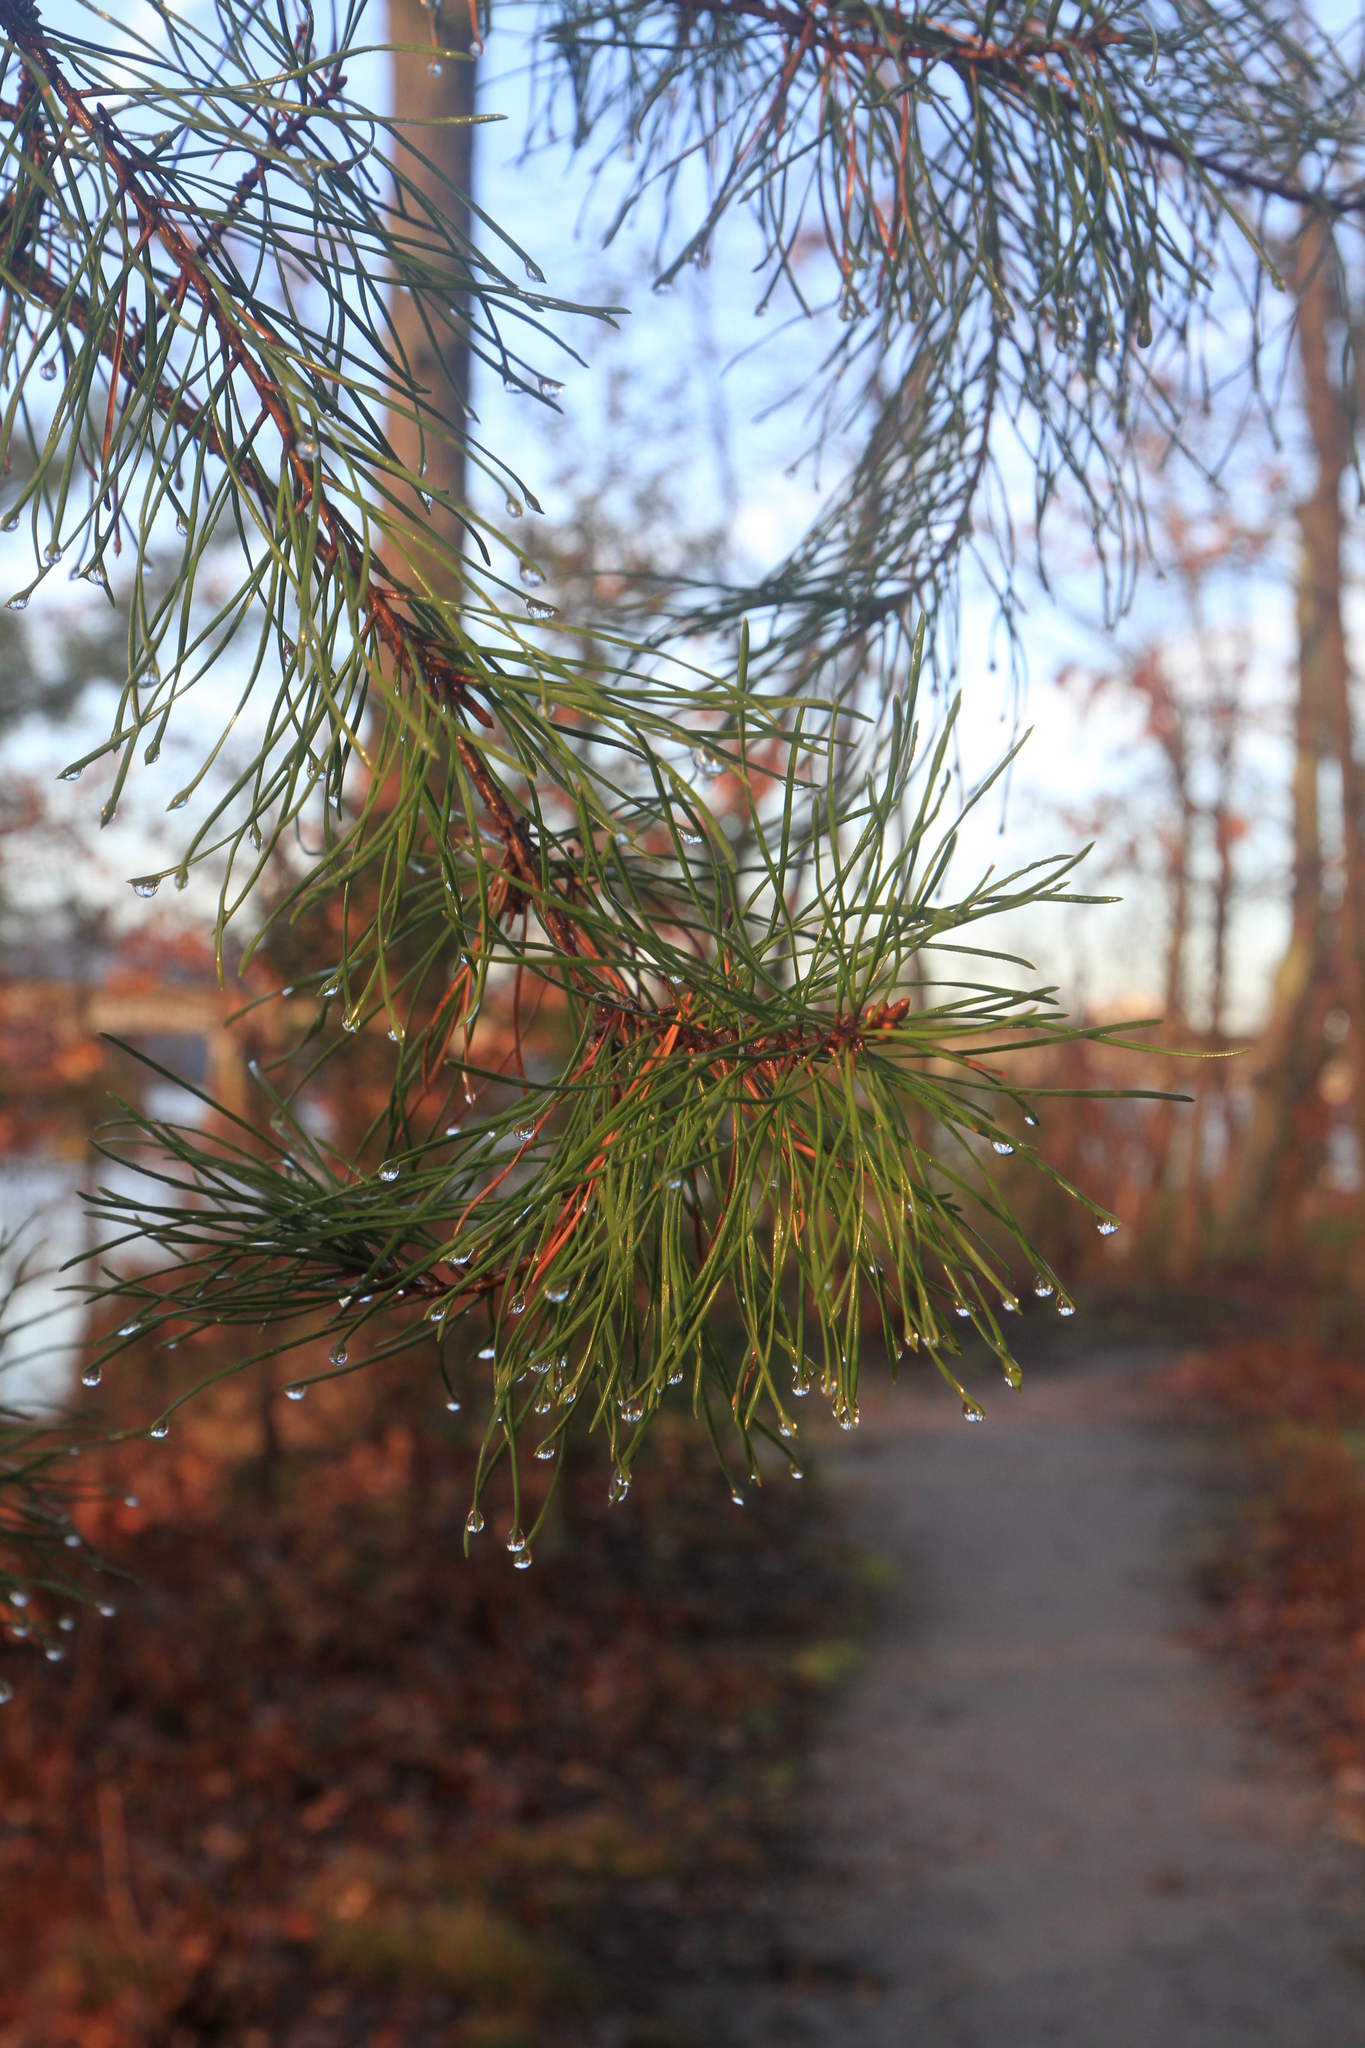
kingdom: Plantae
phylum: Tracheophyta
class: Pinopsida
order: Pinales
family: Pinaceae
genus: Pinus
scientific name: Pinus virginiana
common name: Scrub pine
